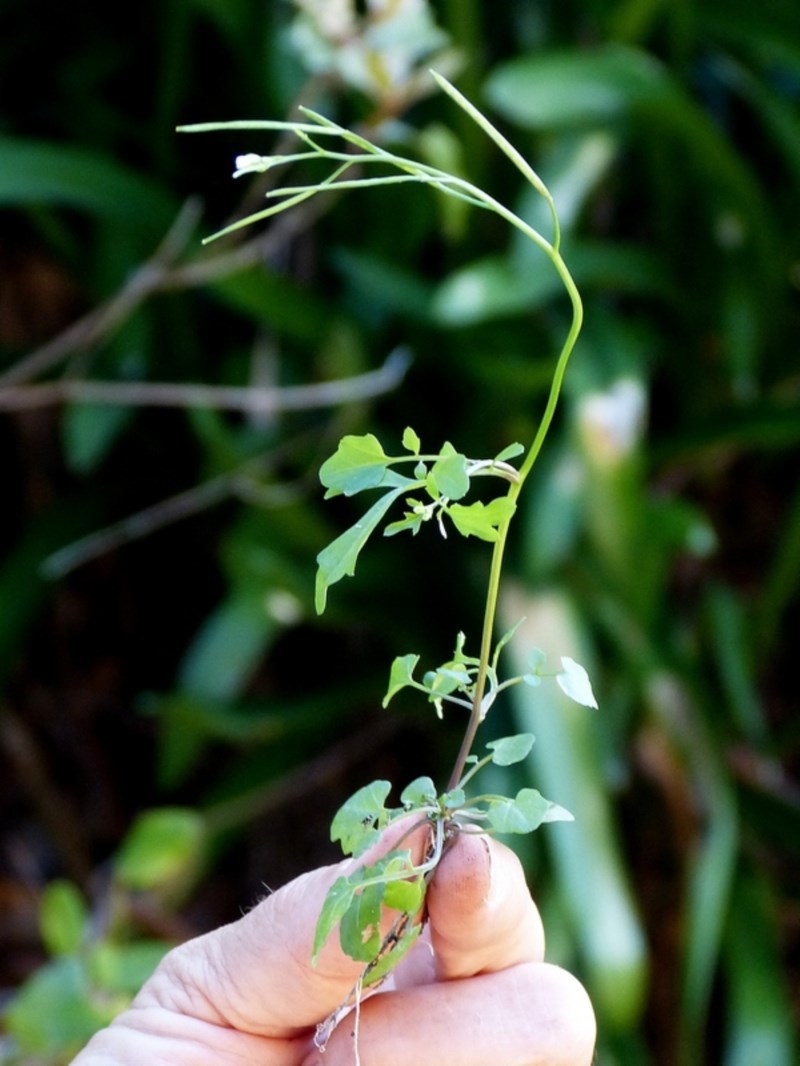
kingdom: Plantae
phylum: Tracheophyta
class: Magnoliopsida
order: Brassicales
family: Brassicaceae
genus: Cardamine
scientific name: Cardamine paucijuga
